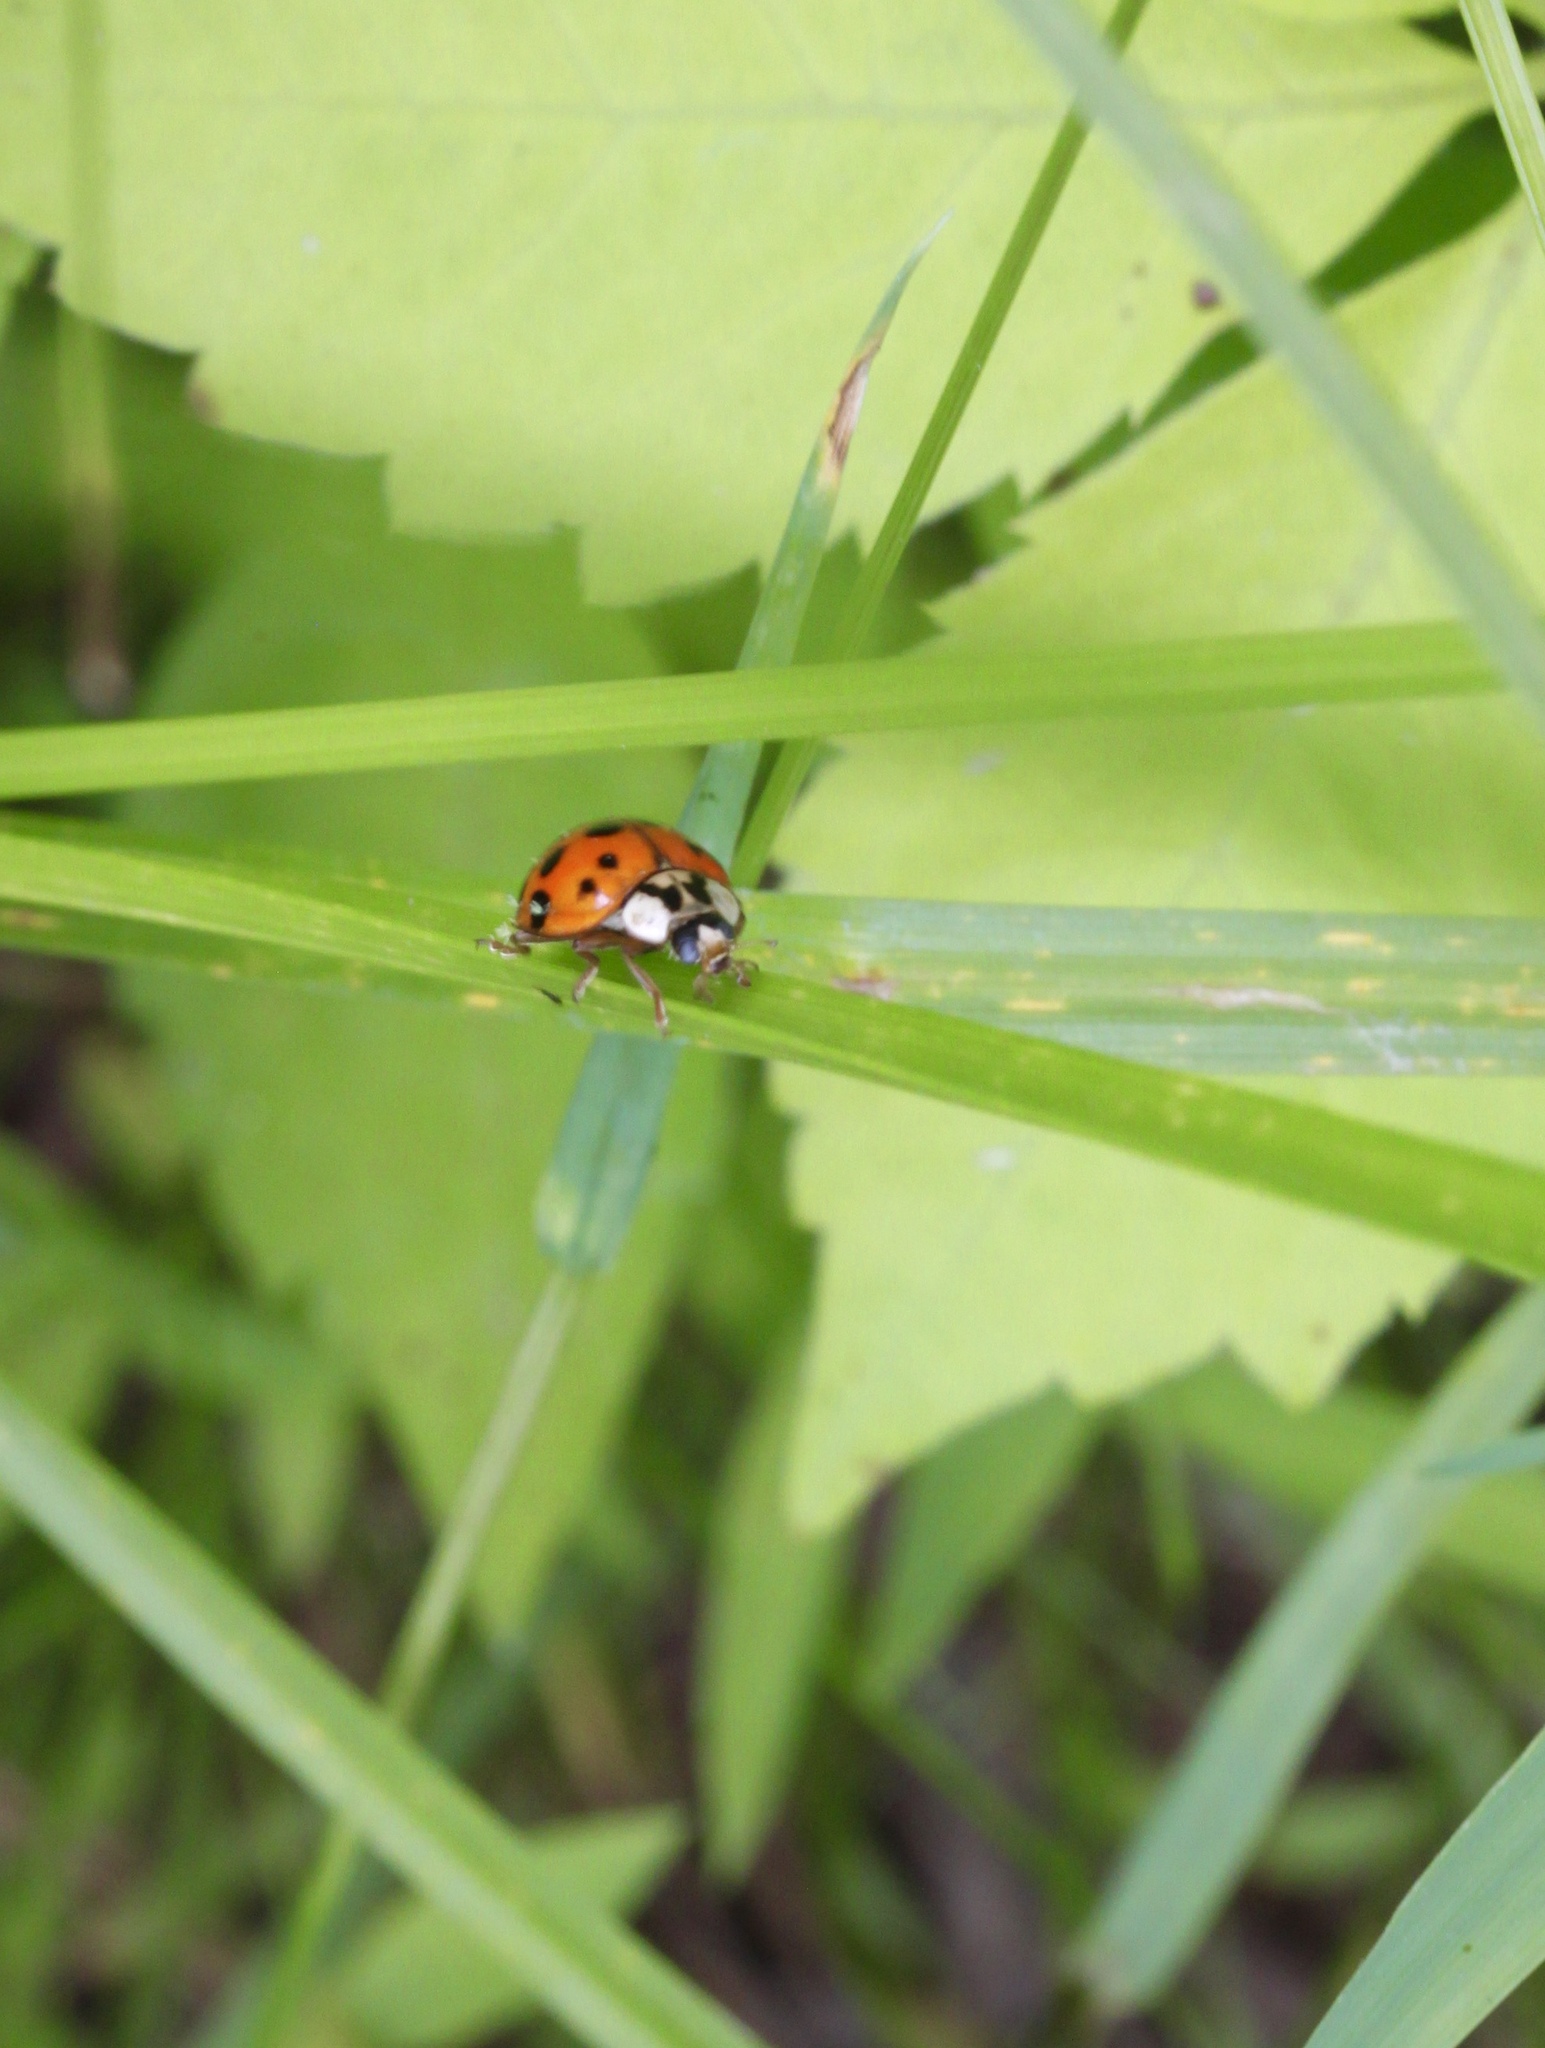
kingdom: Animalia
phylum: Arthropoda
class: Insecta
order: Coleoptera
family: Coccinellidae
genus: Harmonia
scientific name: Harmonia axyridis
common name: Harlequin ladybird
